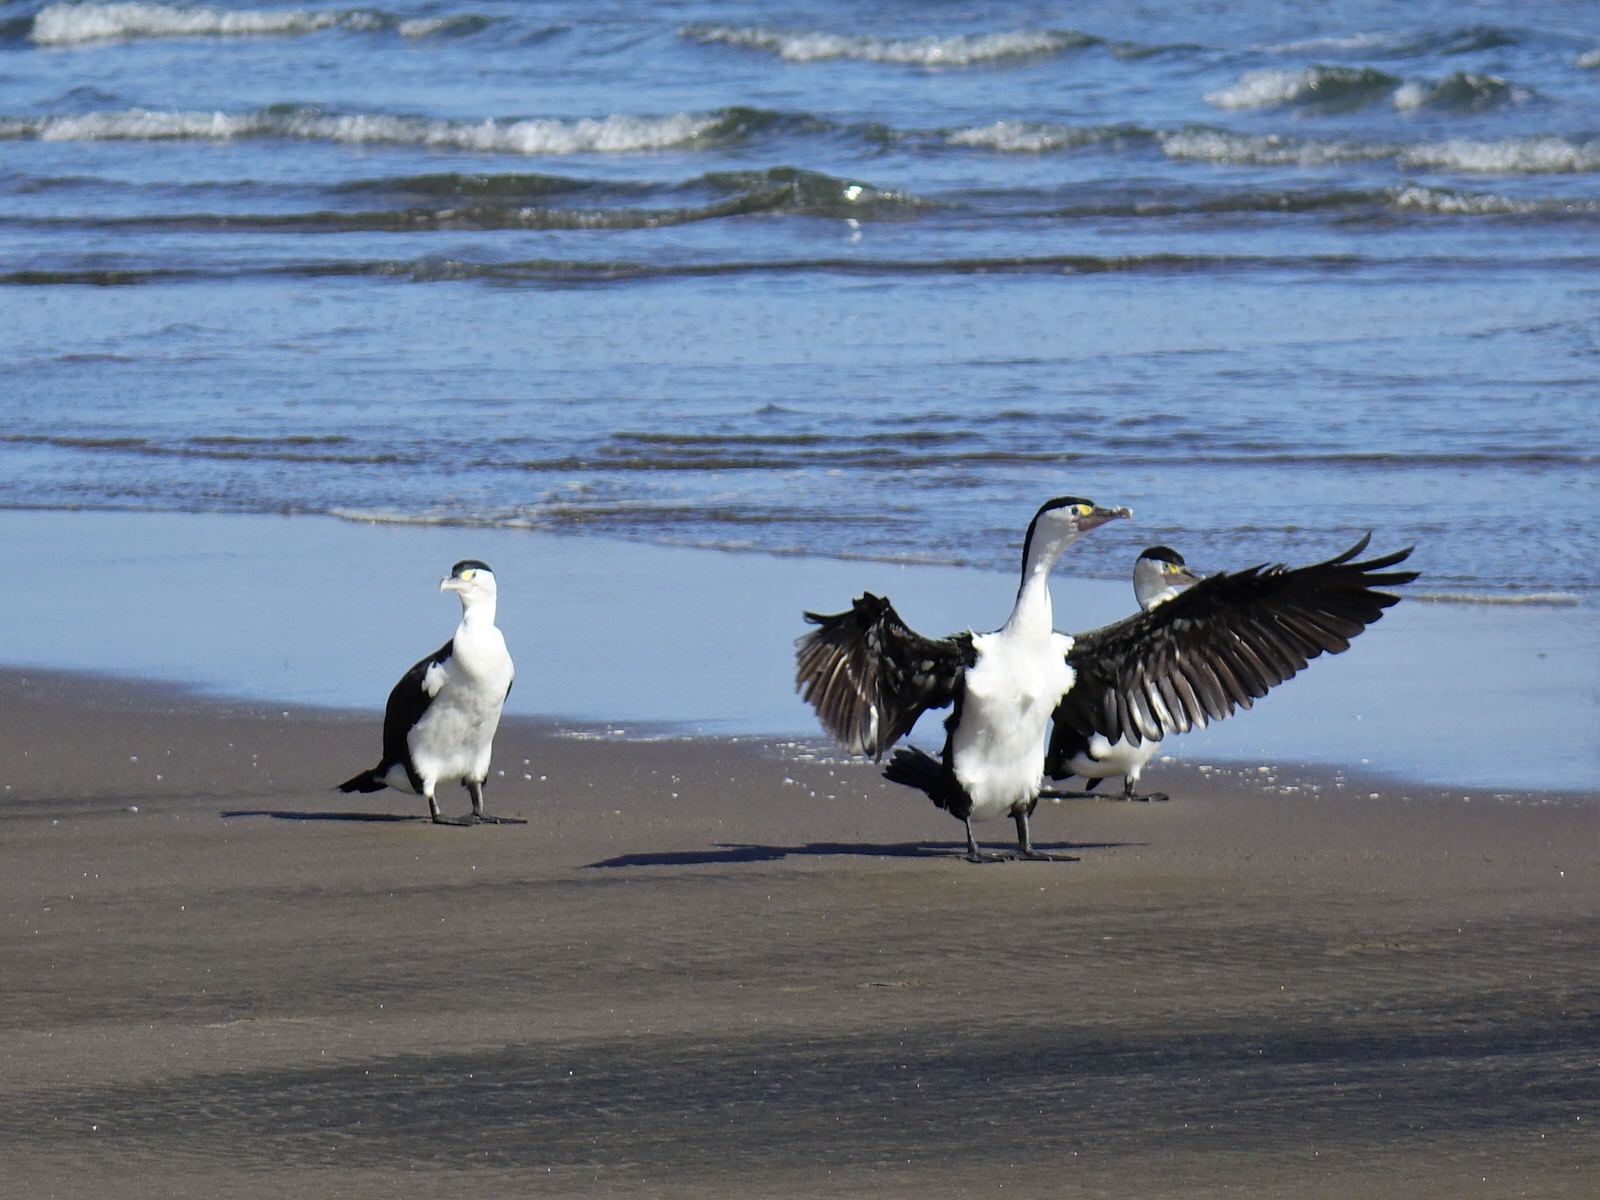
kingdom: Animalia
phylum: Chordata
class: Aves
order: Suliformes
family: Phalacrocoracidae
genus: Phalacrocorax
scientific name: Phalacrocorax varius
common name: Pied cormorant
